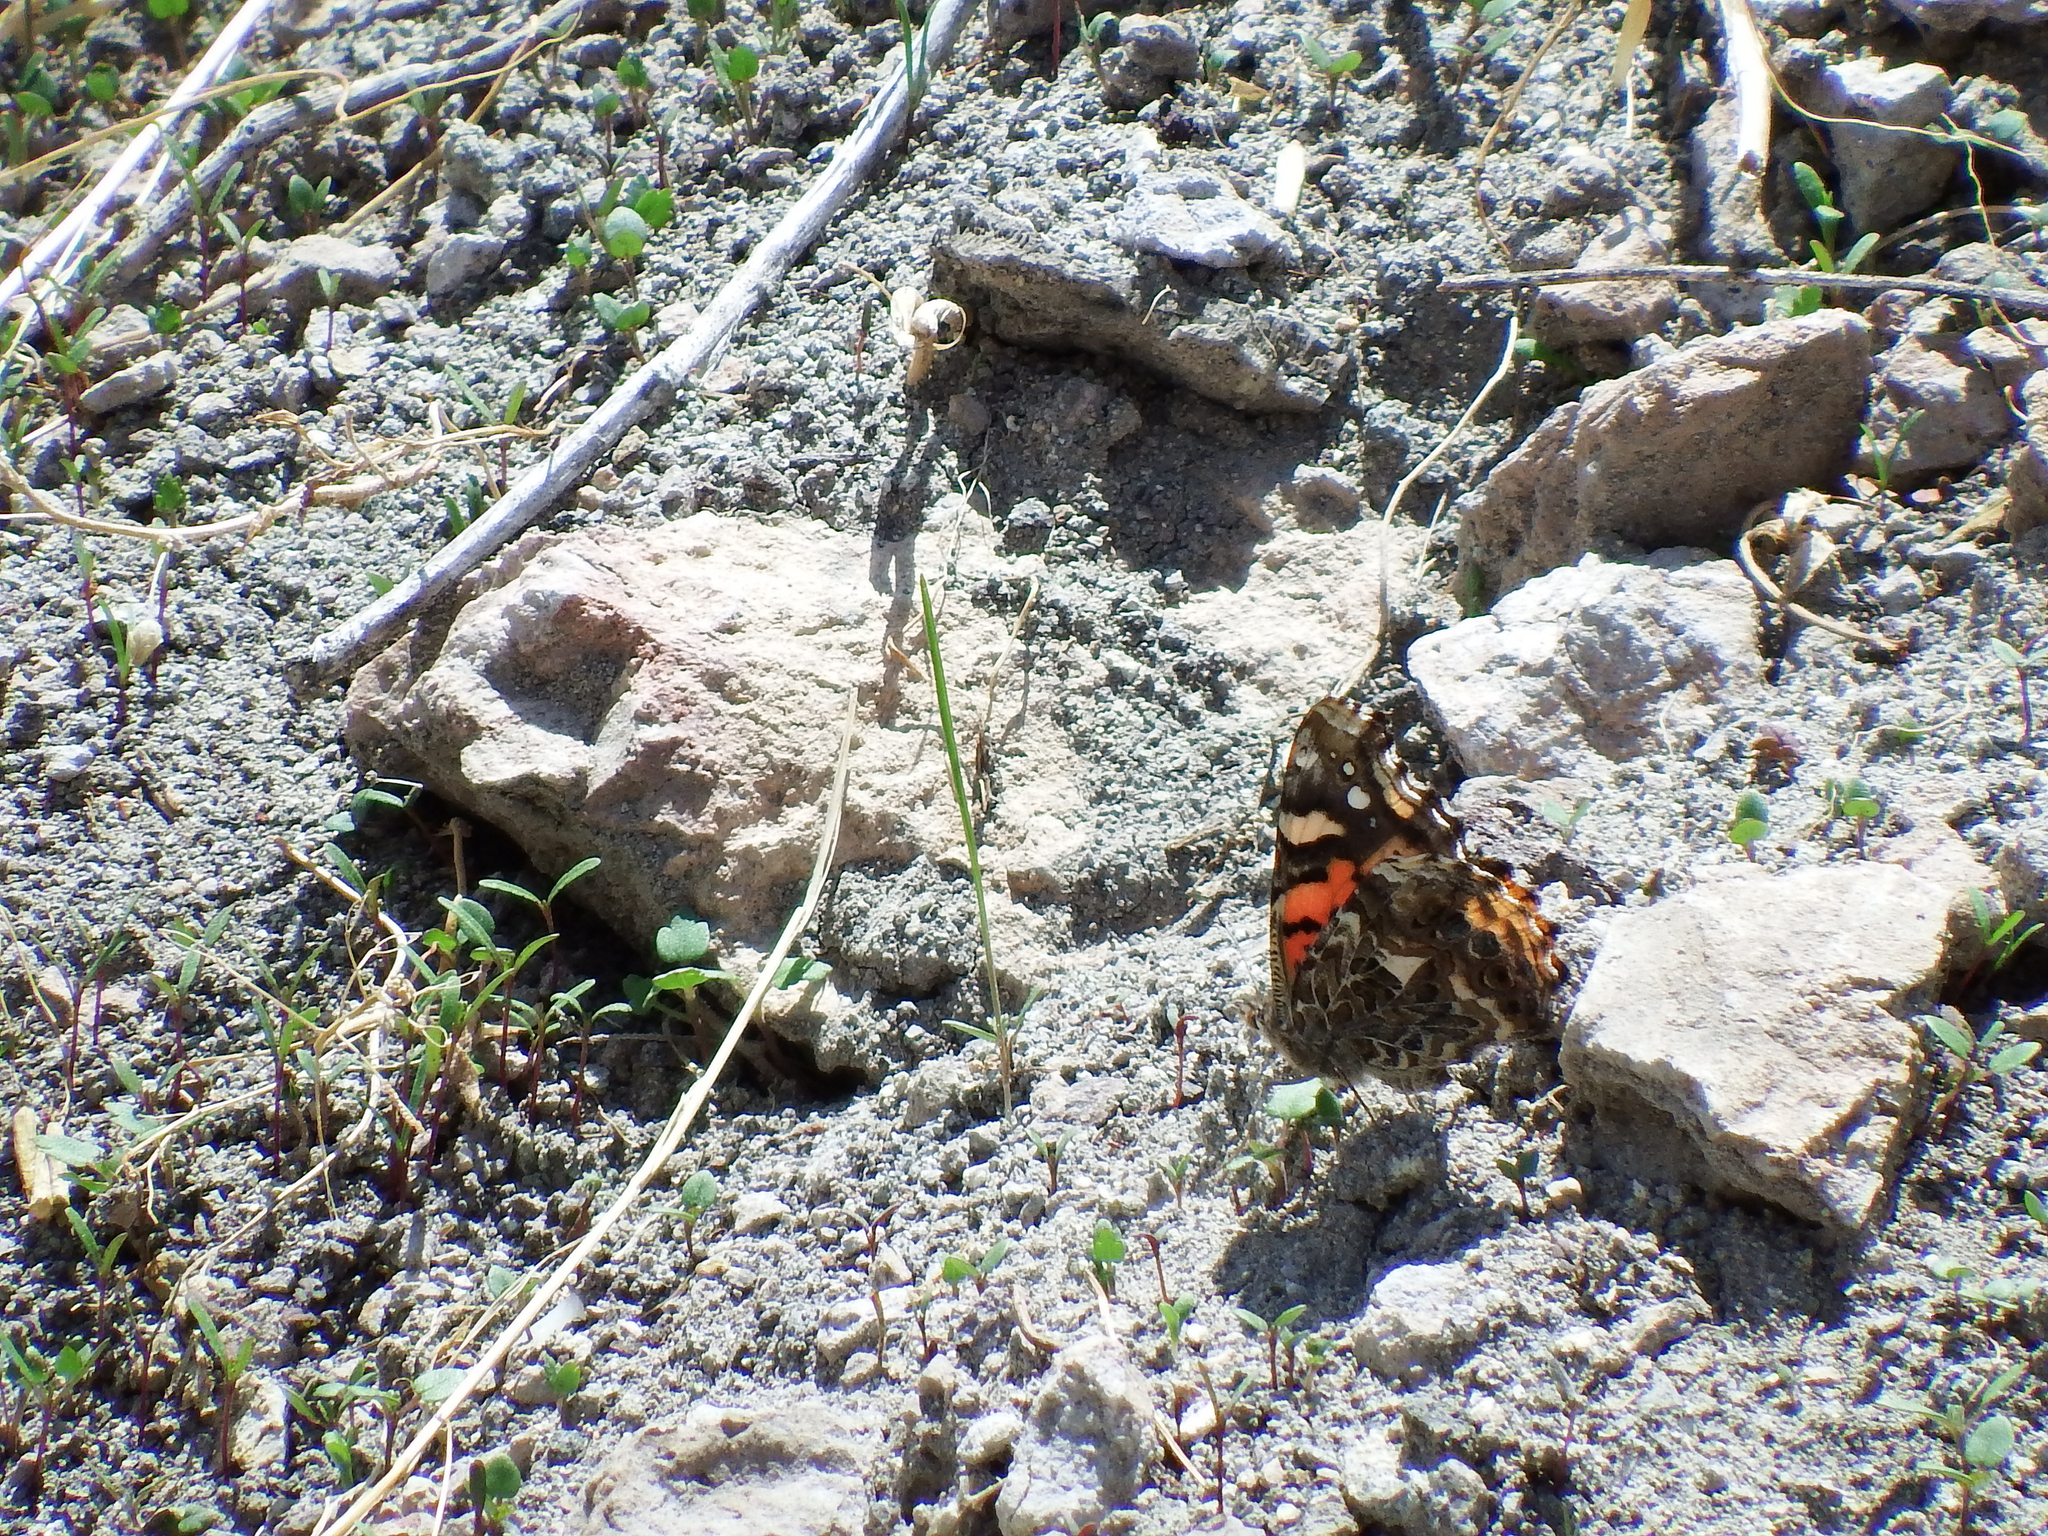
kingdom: Animalia
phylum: Arthropoda
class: Insecta
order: Lepidoptera
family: Nymphalidae
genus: Vanessa
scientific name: Vanessa carye
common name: Subtropical lady
